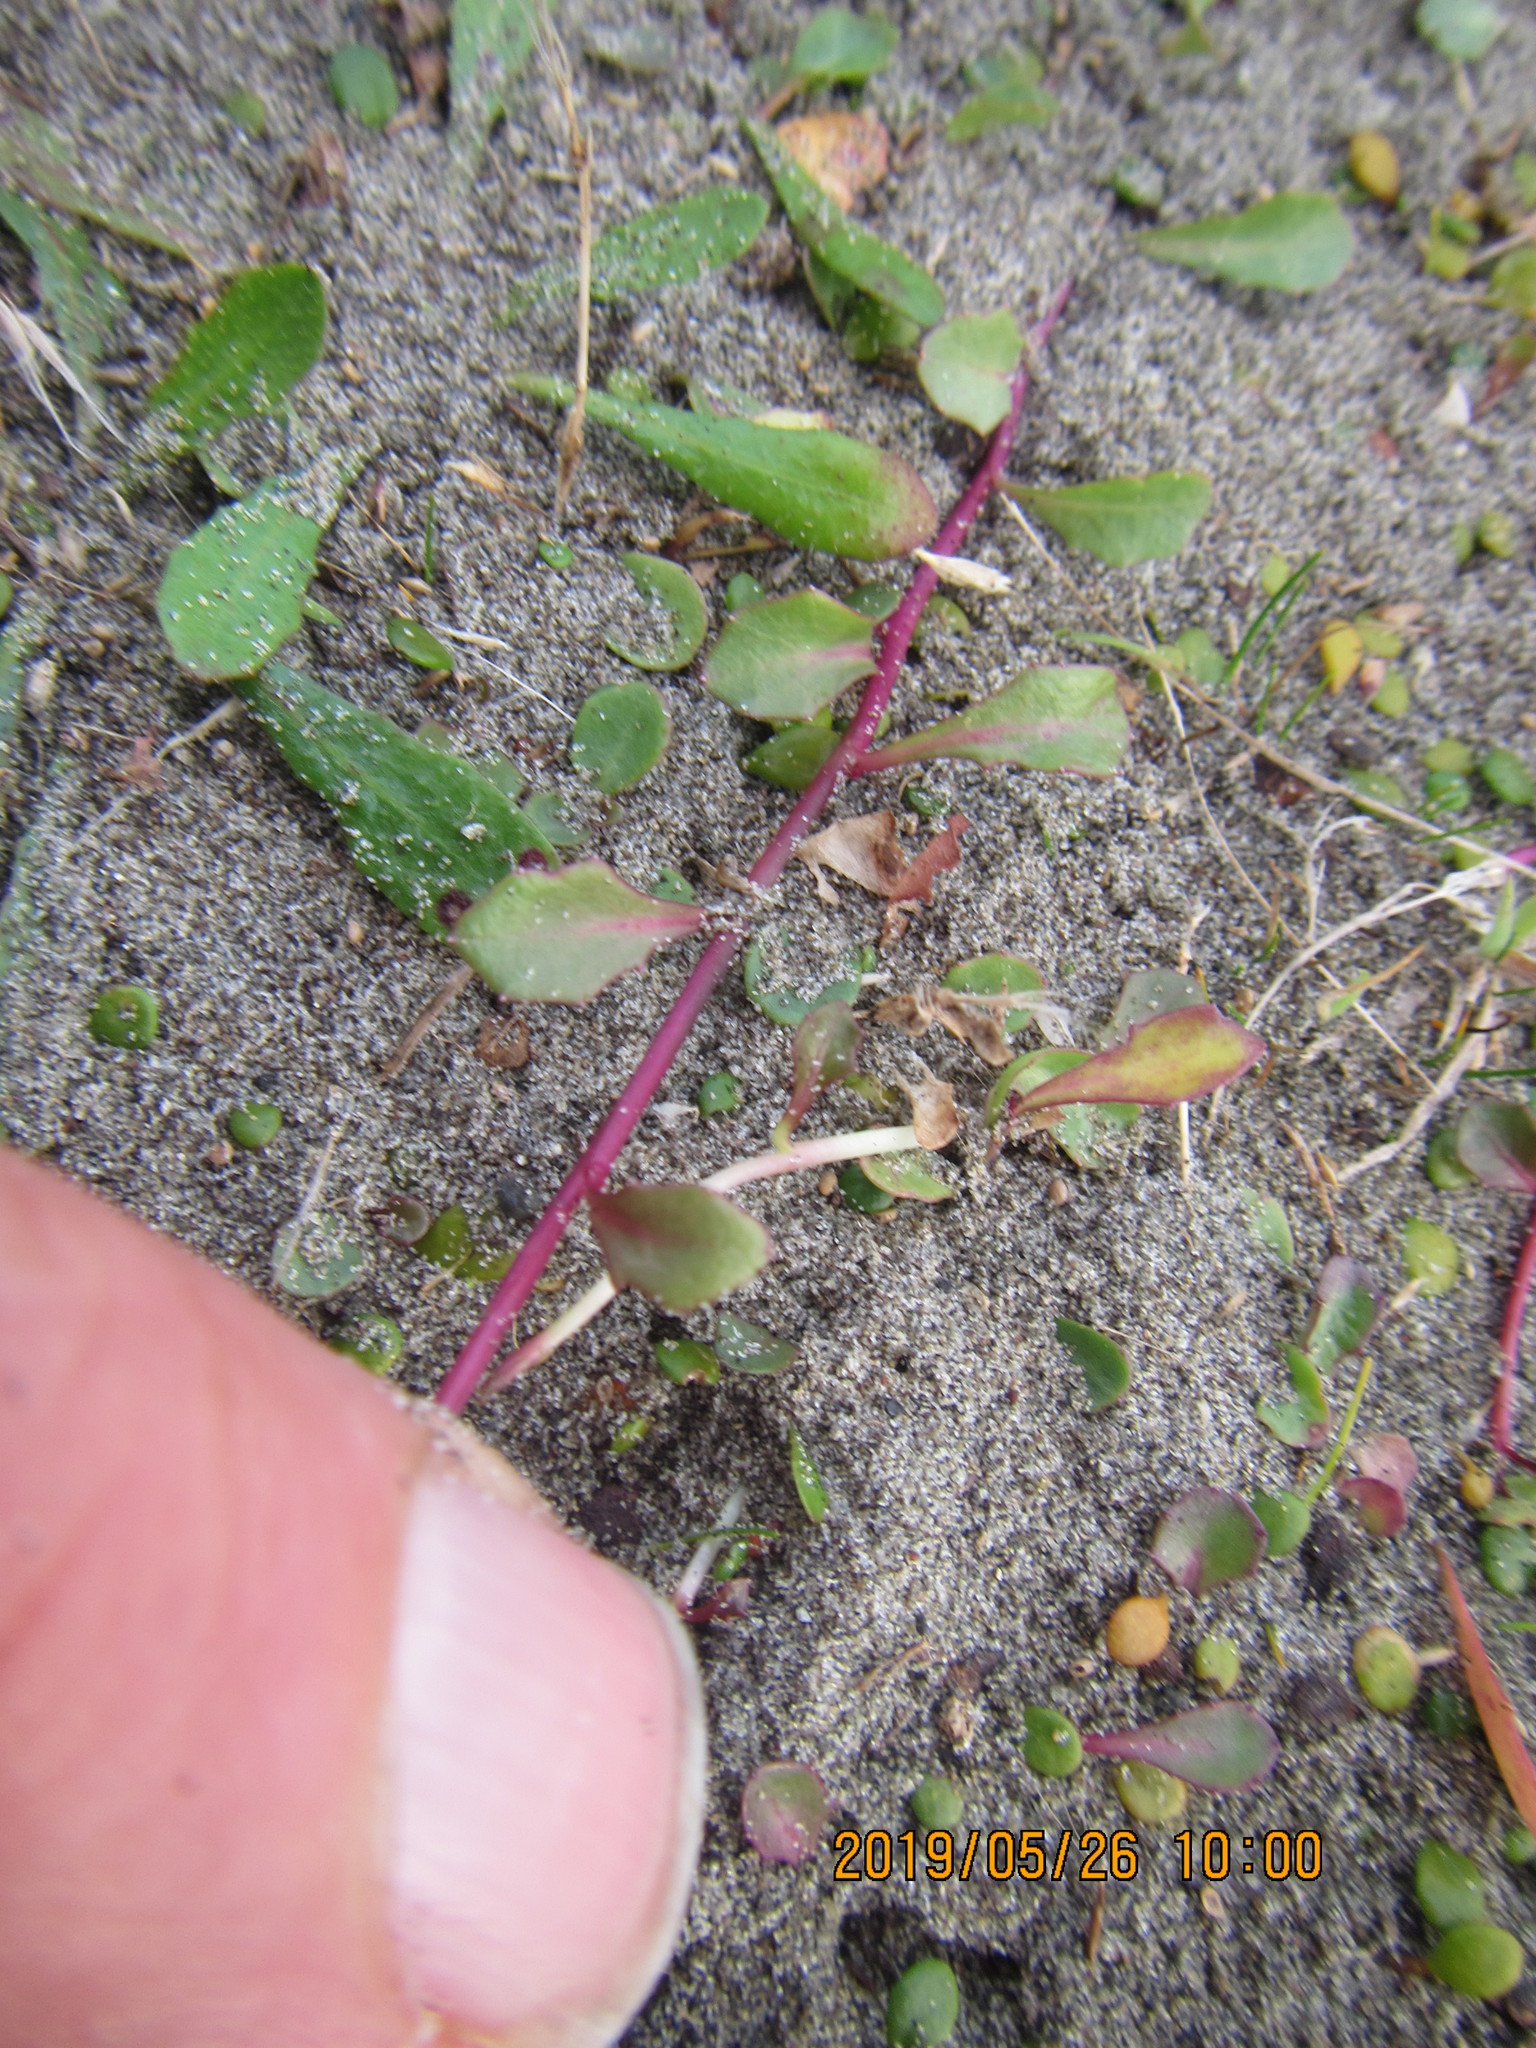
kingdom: Plantae
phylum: Tracheophyta
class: Magnoliopsida
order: Asterales
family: Campanulaceae
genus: Lobelia
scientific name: Lobelia anceps
